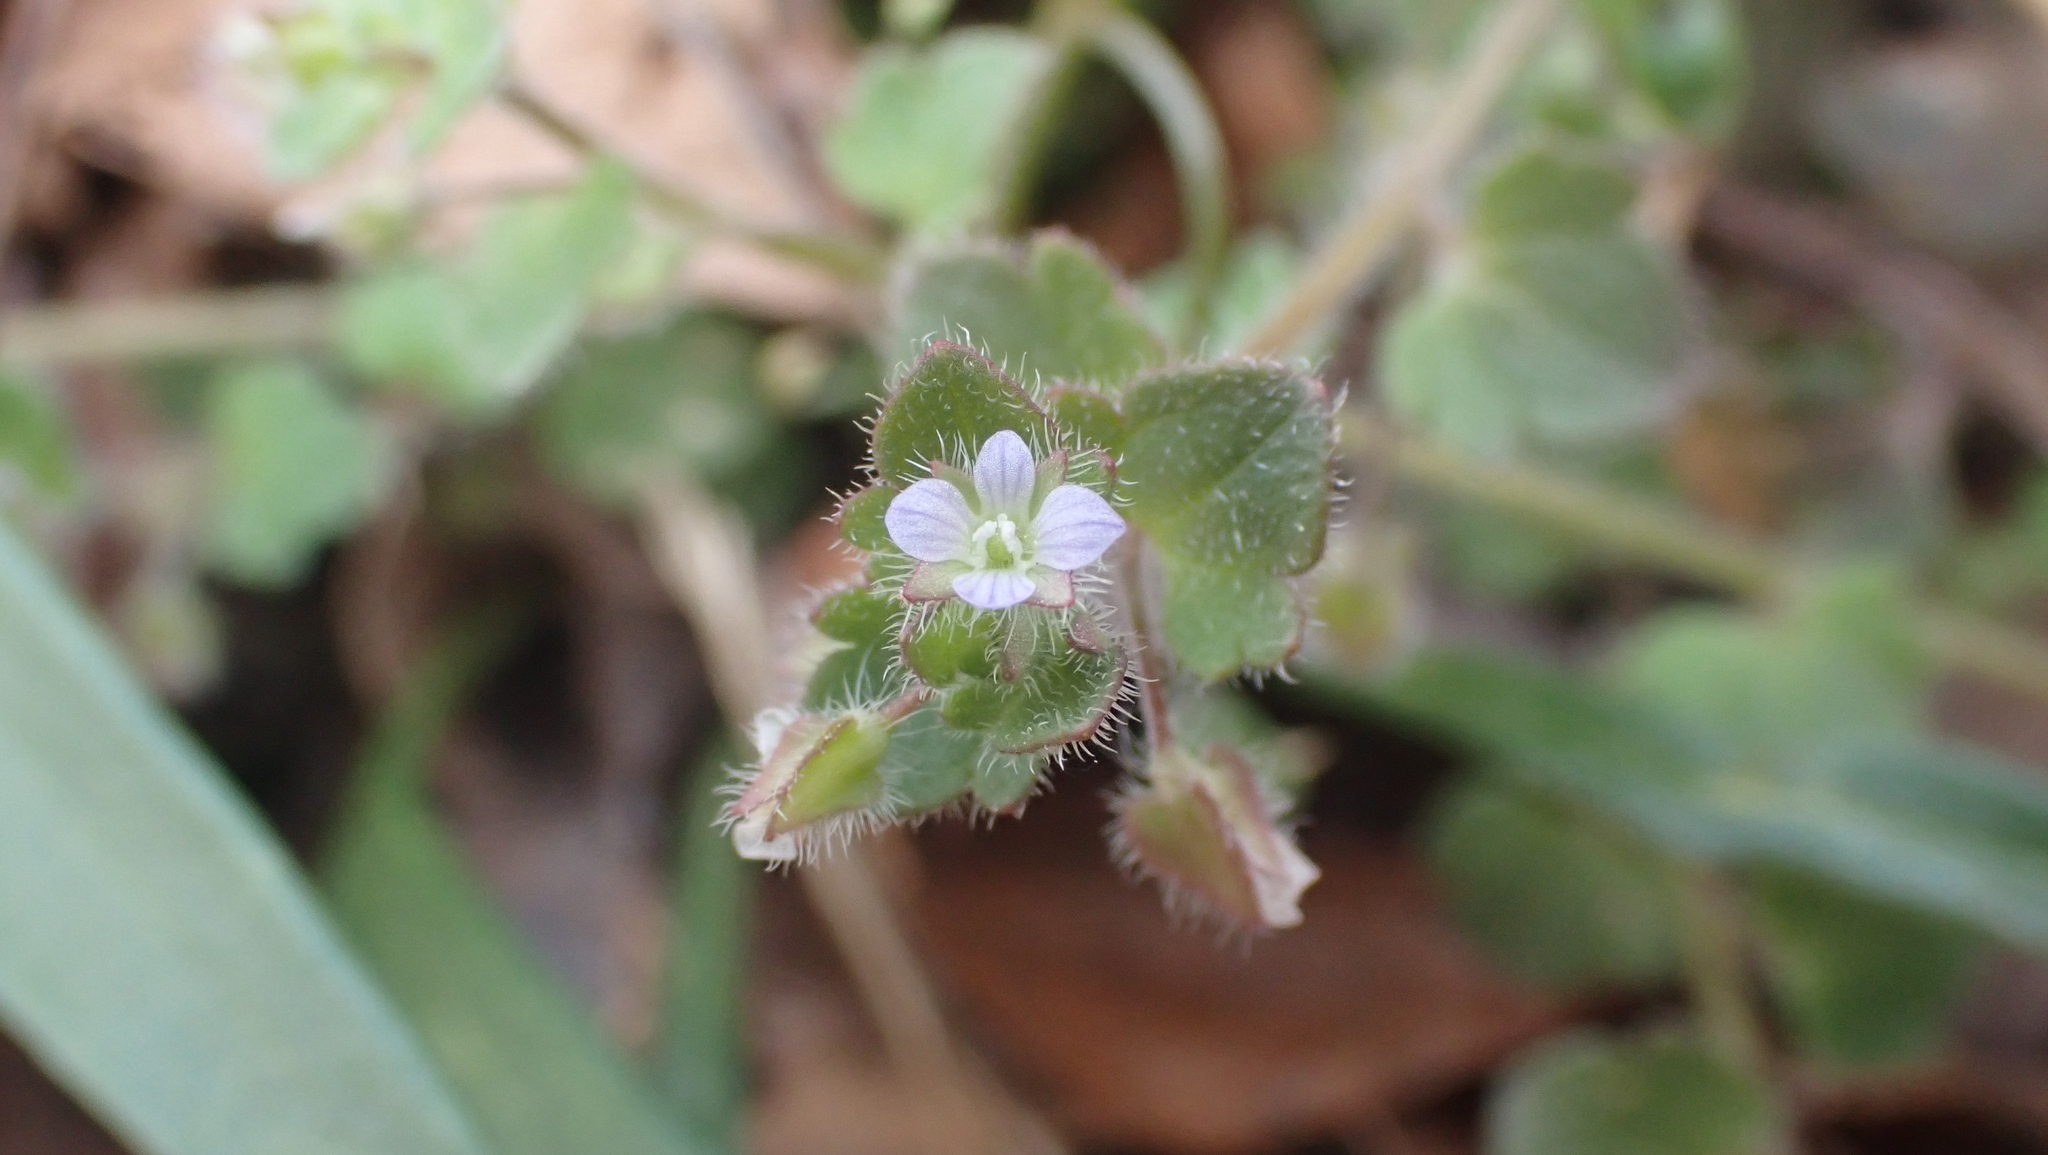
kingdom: Plantae
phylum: Tracheophyta
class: Magnoliopsida
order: Lamiales
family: Plantaginaceae
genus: Veronica
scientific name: Veronica hederifolia
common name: Ivy-leaved speedwell
